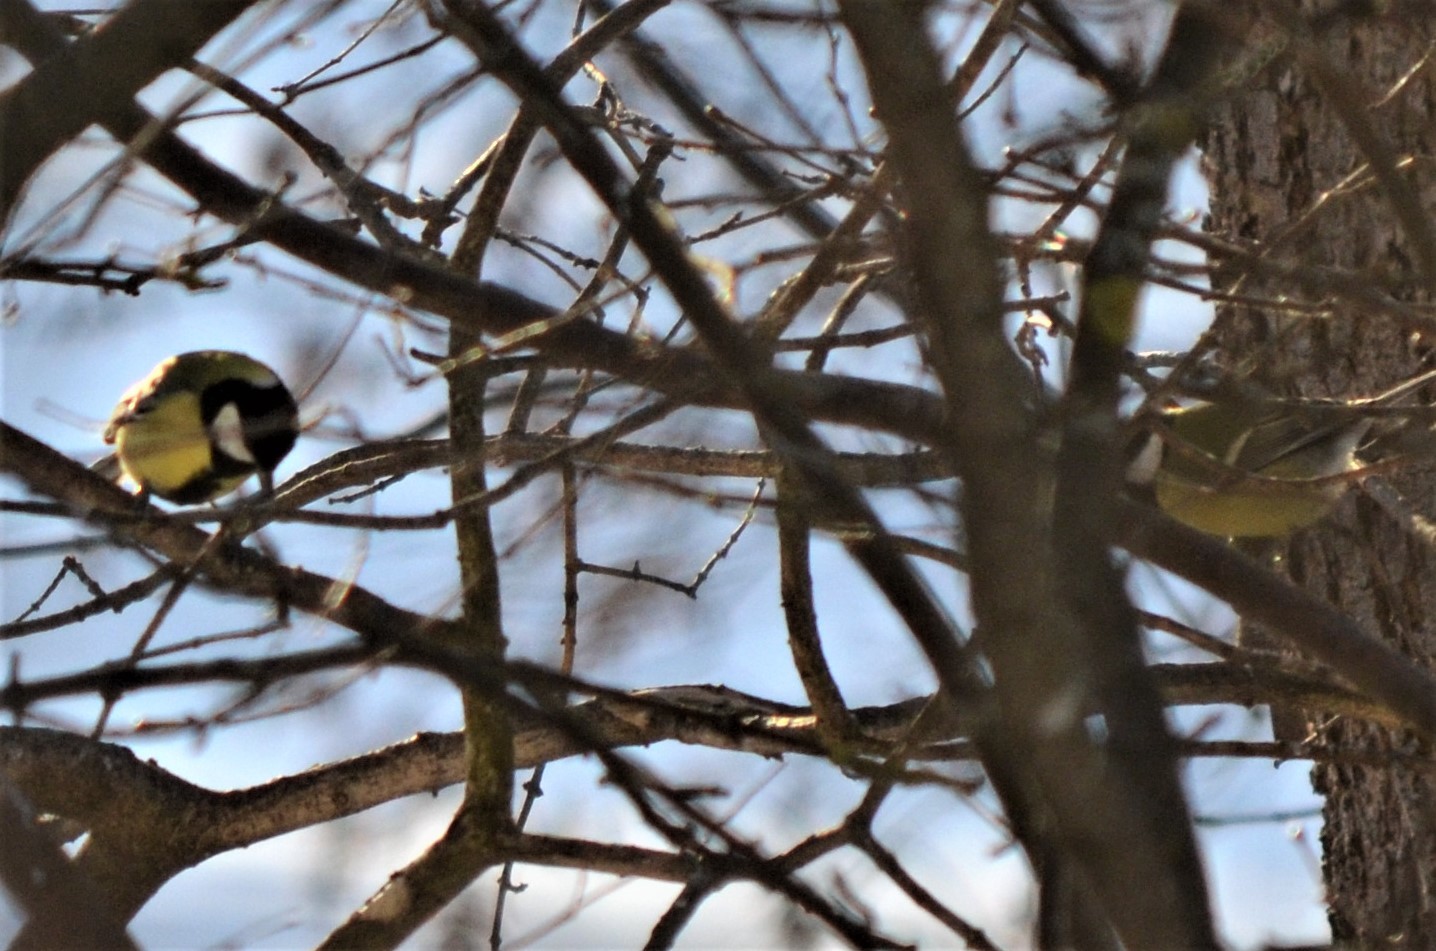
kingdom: Animalia
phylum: Chordata
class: Aves
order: Passeriformes
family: Paridae
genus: Parus
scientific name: Parus major
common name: Great tit
